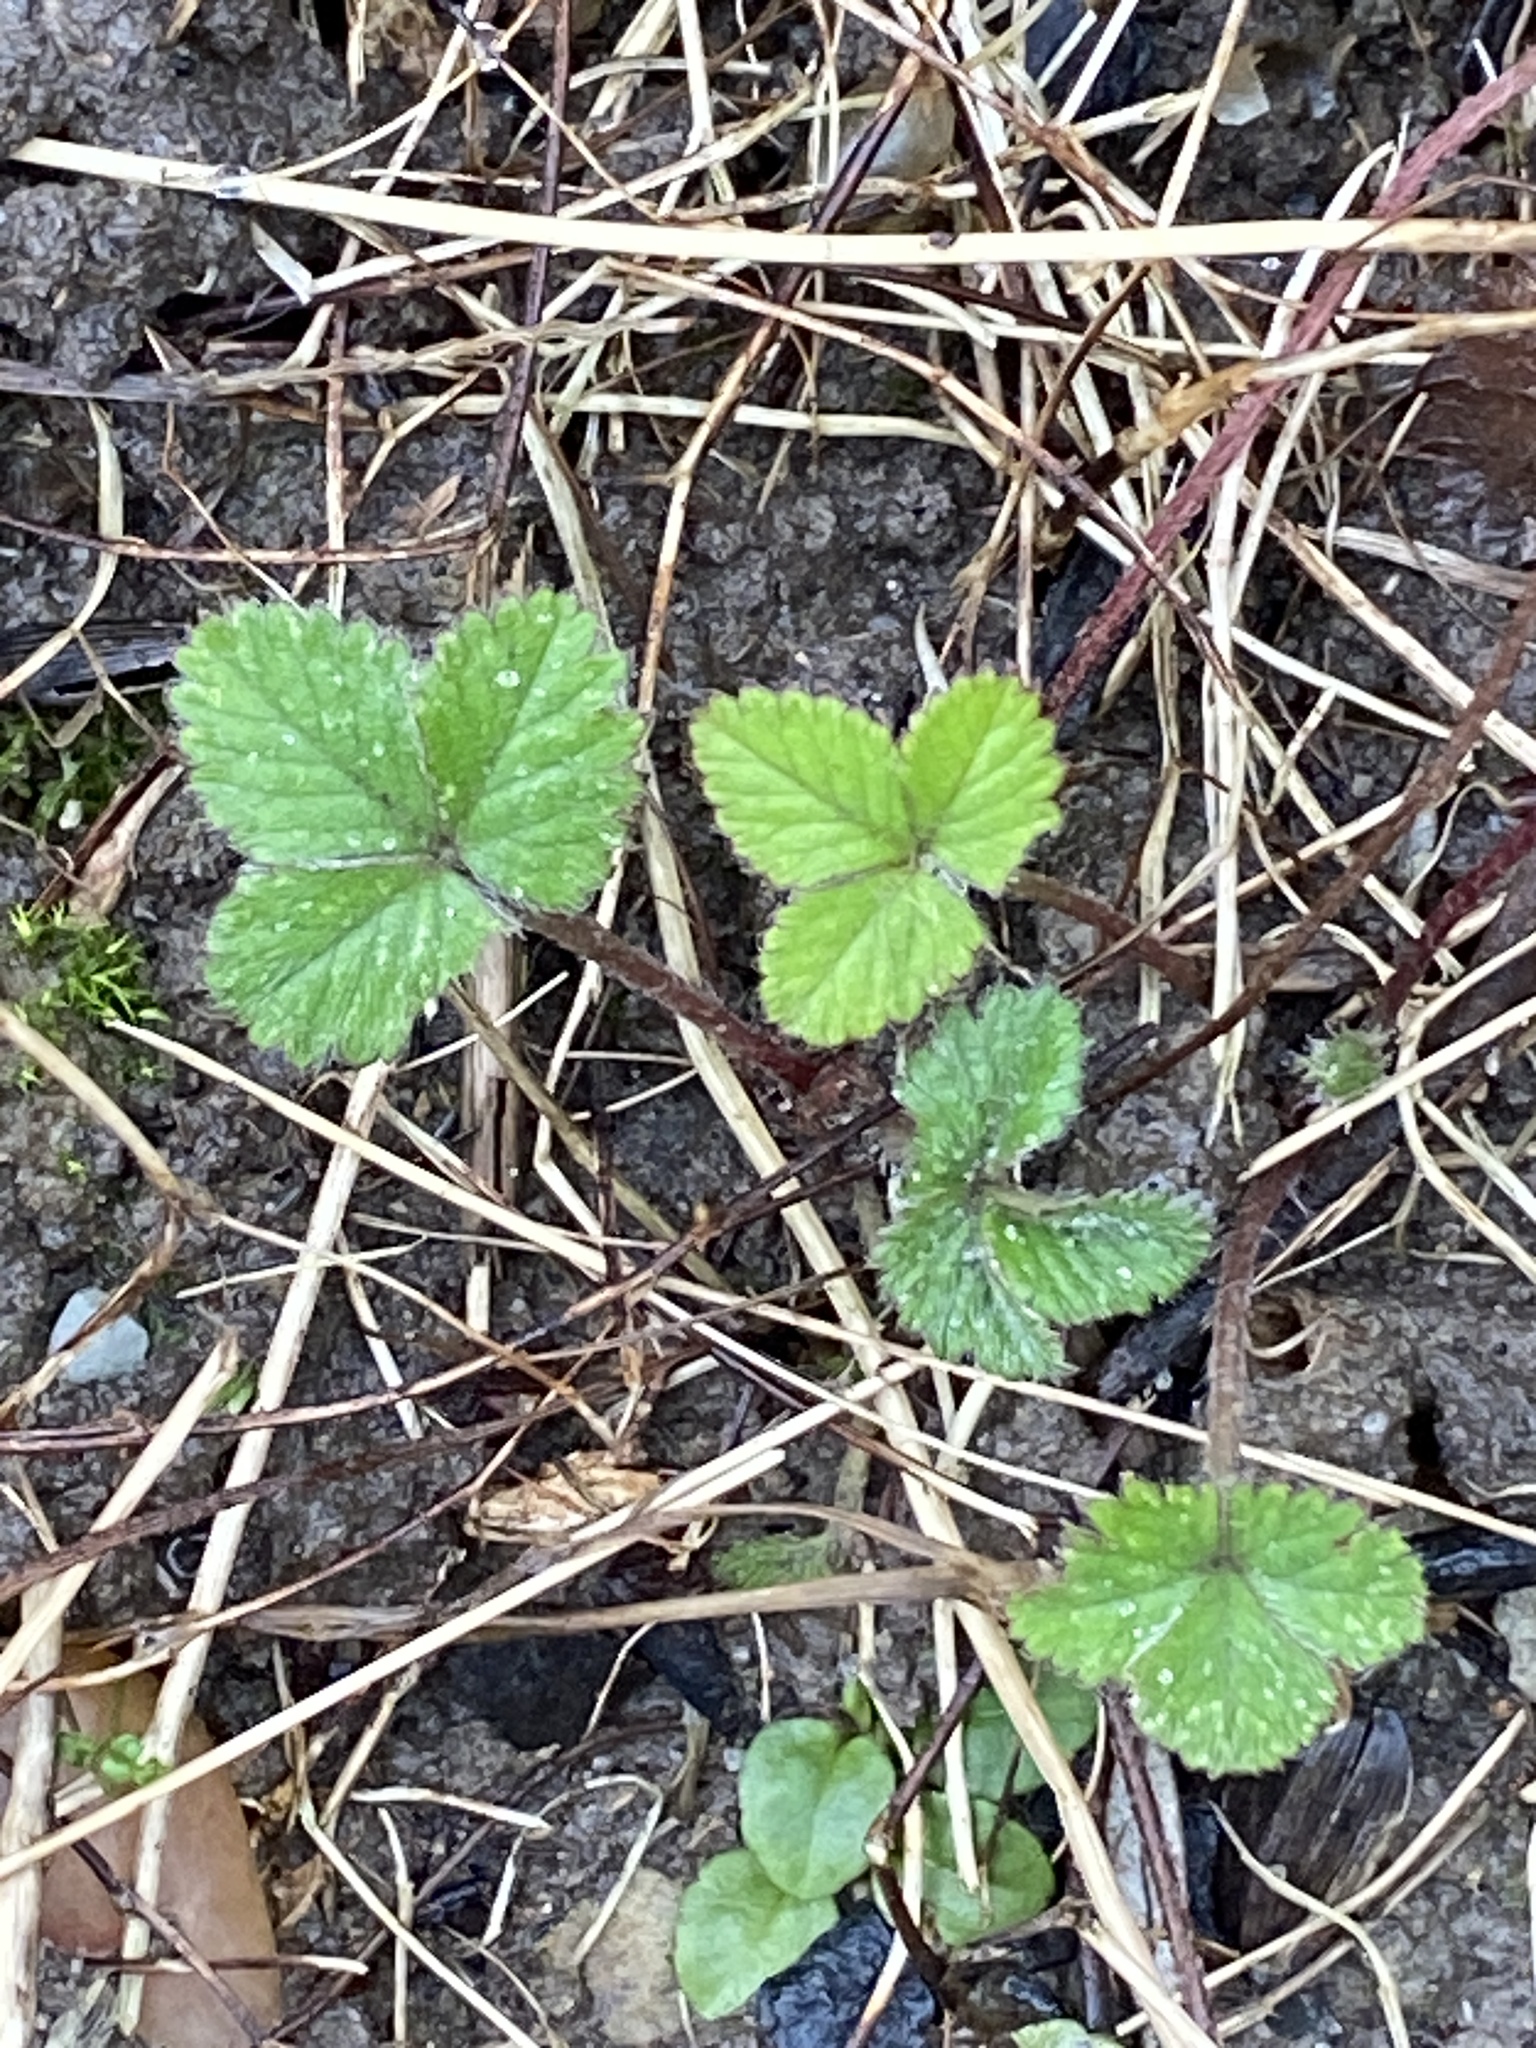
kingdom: Plantae
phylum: Tracheophyta
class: Magnoliopsida
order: Rosales
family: Rosaceae
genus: Potentilla
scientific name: Potentilla indica
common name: Yellow-flowered strawberry
